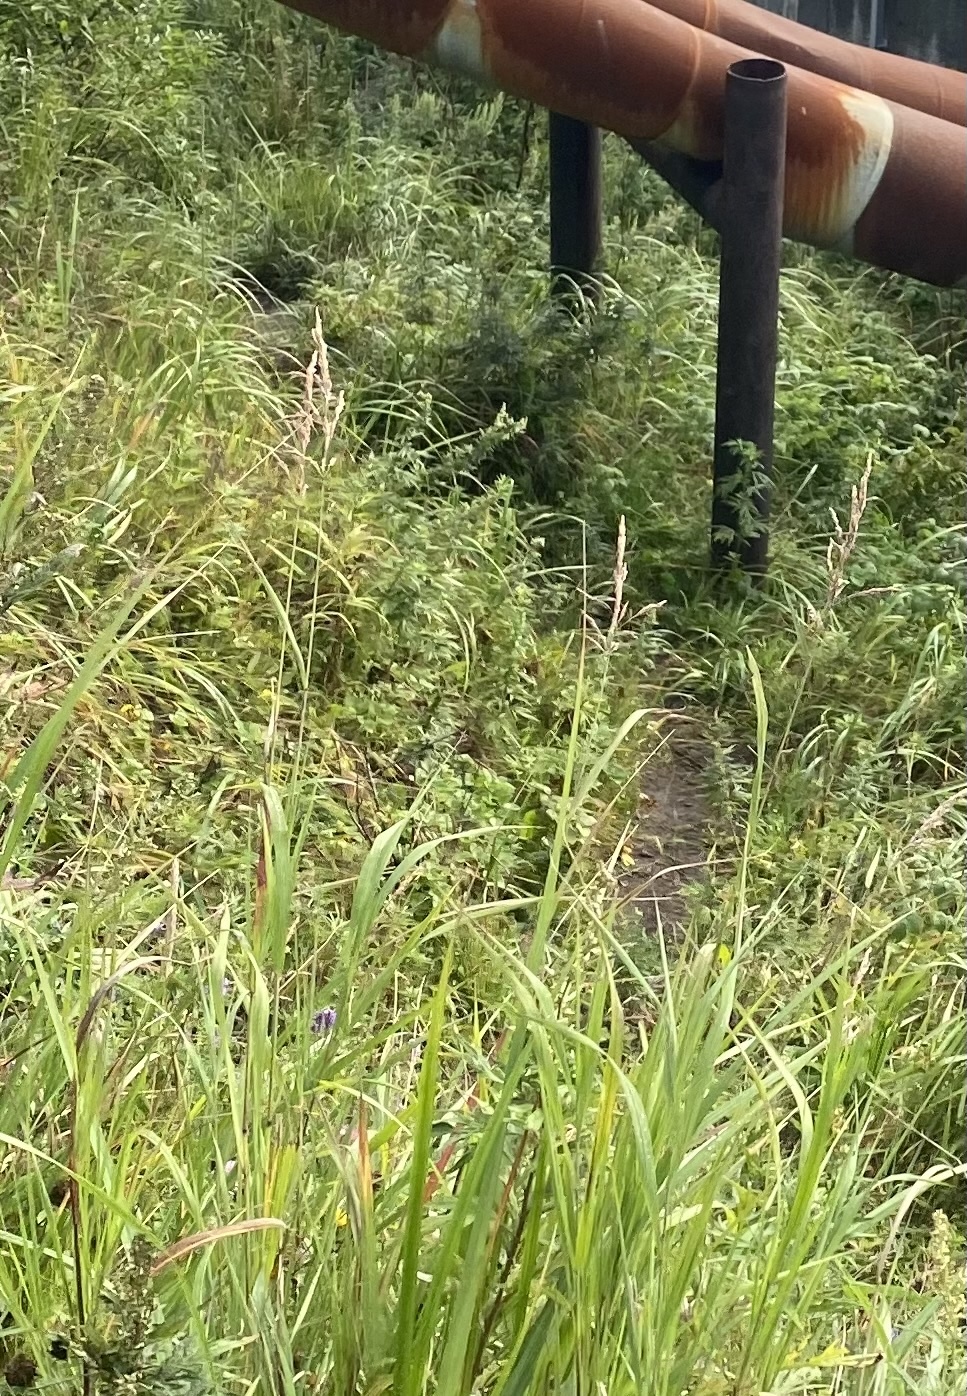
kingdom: Plantae
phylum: Tracheophyta
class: Liliopsida
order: Poales
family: Poaceae
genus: Calamagrostis
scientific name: Calamagrostis purpurea
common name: Scandinavian small-reed
